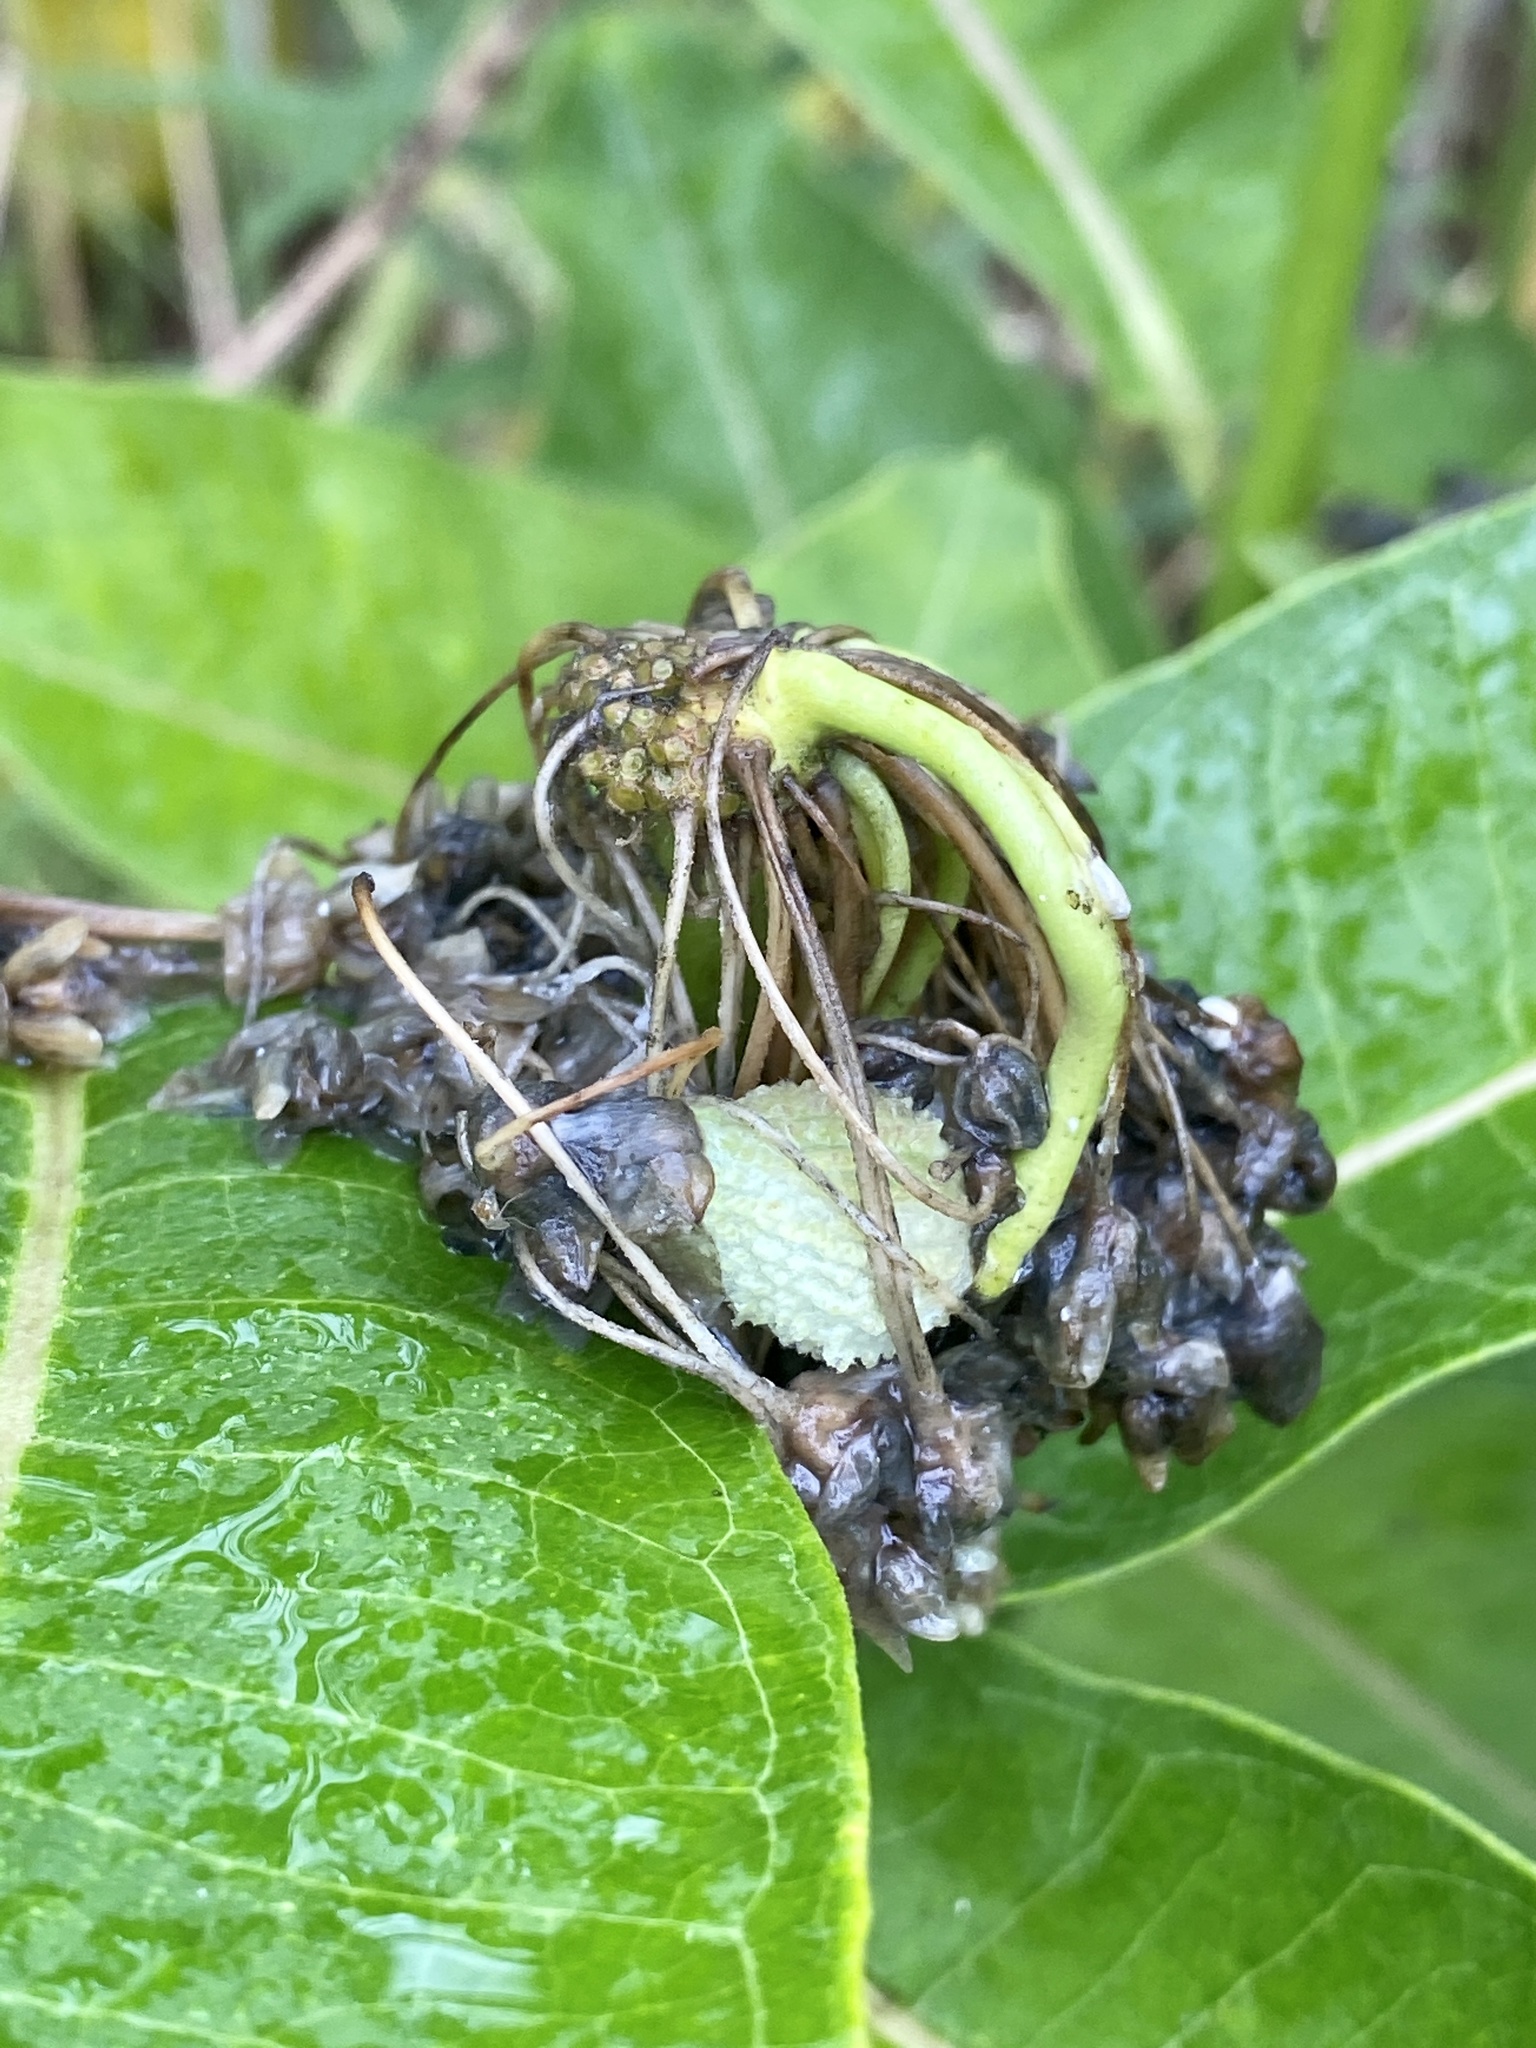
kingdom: Plantae
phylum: Tracheophyta
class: Magnoliopsida
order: Gentianales
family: Apocynaceae
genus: Asclepias
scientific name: Asclepias syriaca
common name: Common milkweed
